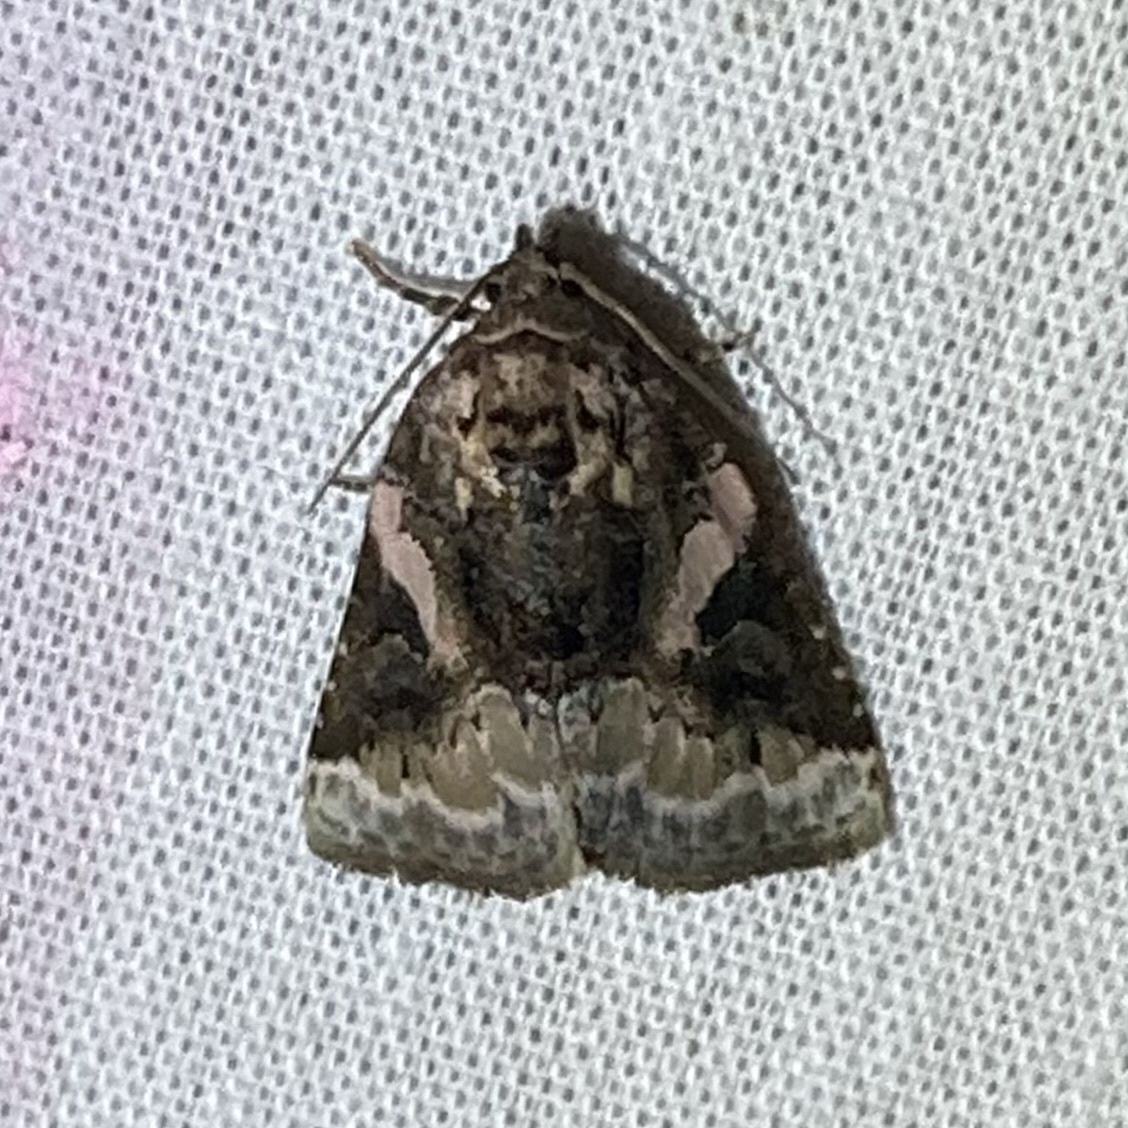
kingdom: Animalia
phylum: Arthropoda
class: Insecta
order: Lepidoptera
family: Noctuidae
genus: Pseudeustrotia
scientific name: Pseudeustrotia carneola
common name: Pink-barred lithacodia moth
